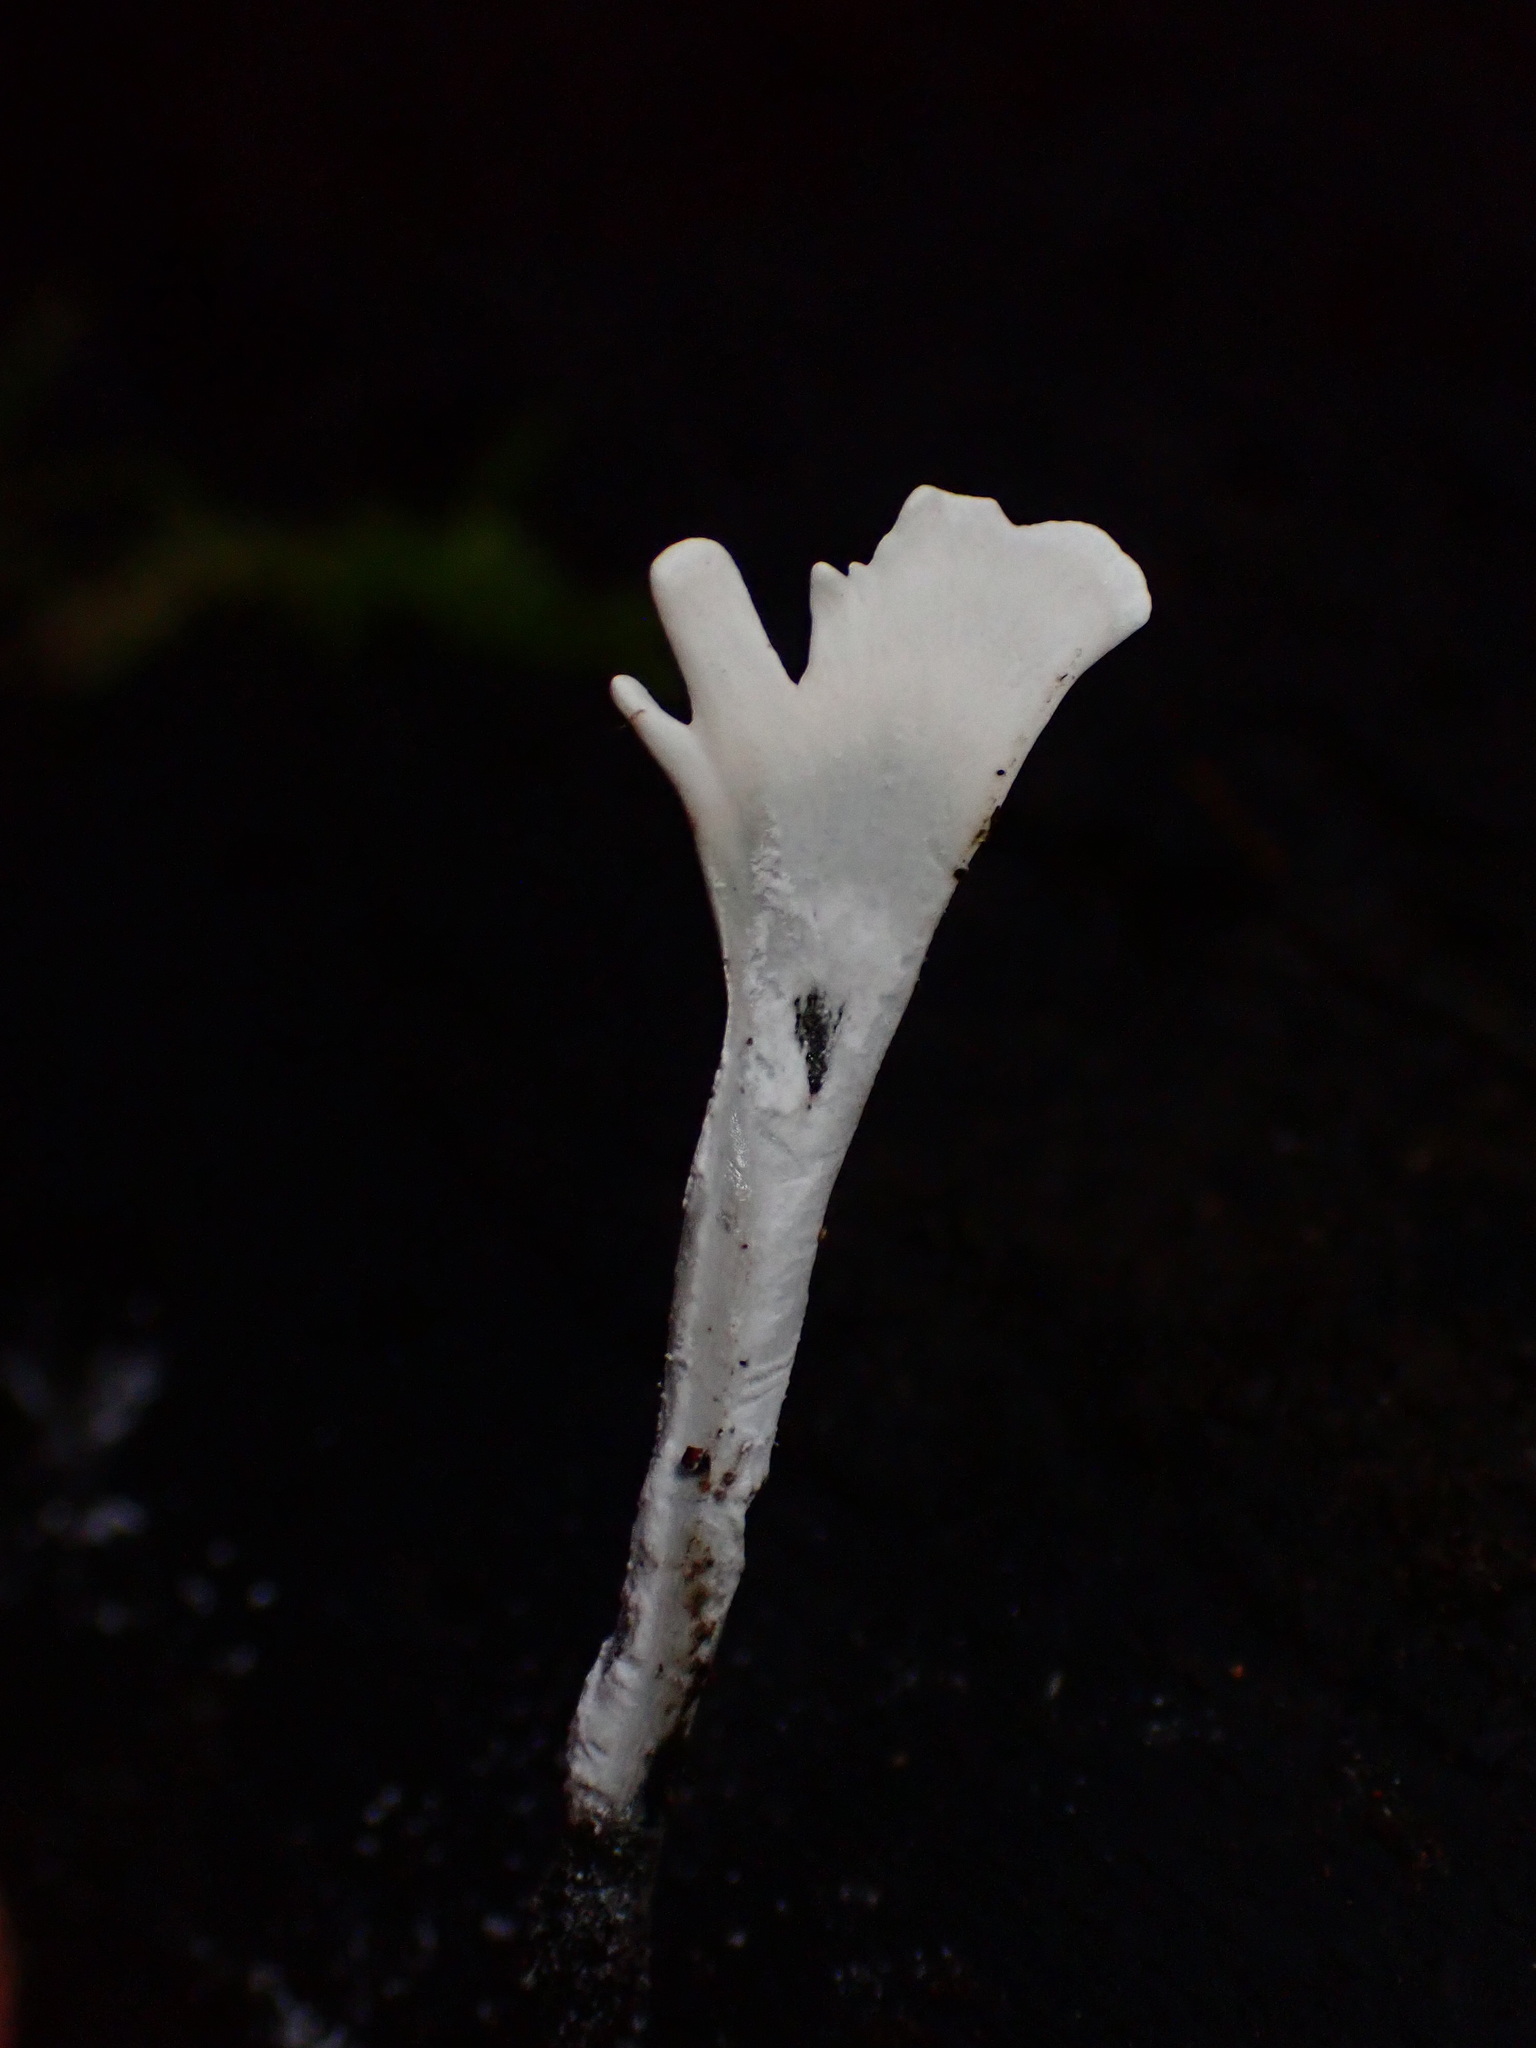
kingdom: Fungi
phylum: Ascomycota
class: Sordariomycetes
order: Xylariales
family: Xylariaceae
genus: Xylaria
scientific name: Xylaria hypoxylon
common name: Candle-snuff fungus
